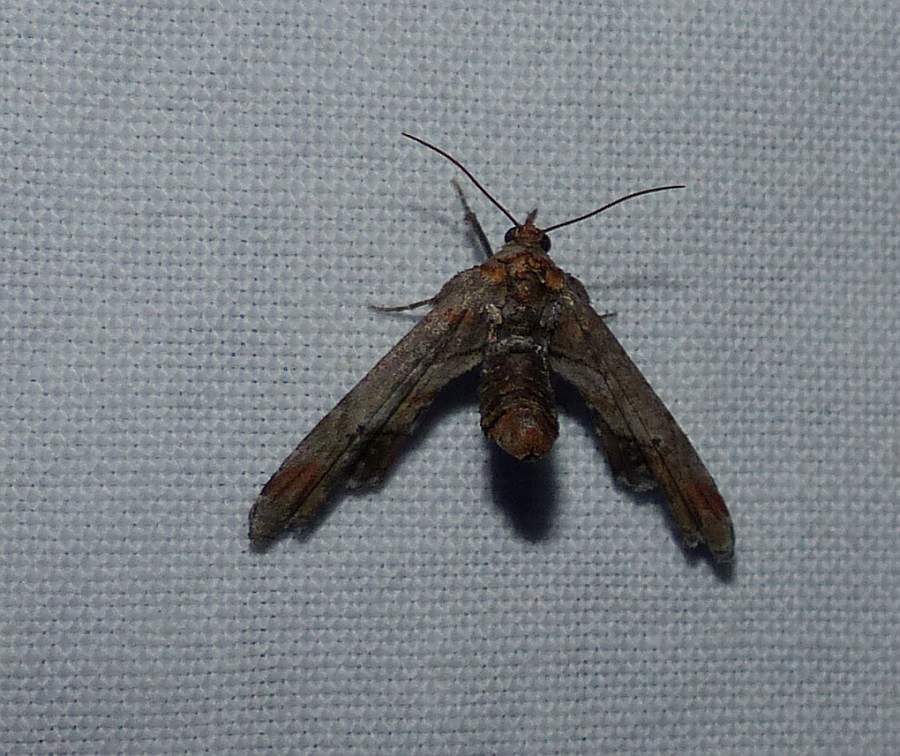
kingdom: Animalia
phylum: Arthropoda
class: Insecta
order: Lepidoptera
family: Euteliidae
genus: Marathyssa
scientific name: Marathyssa inficita
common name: Dark marathyssa moth
